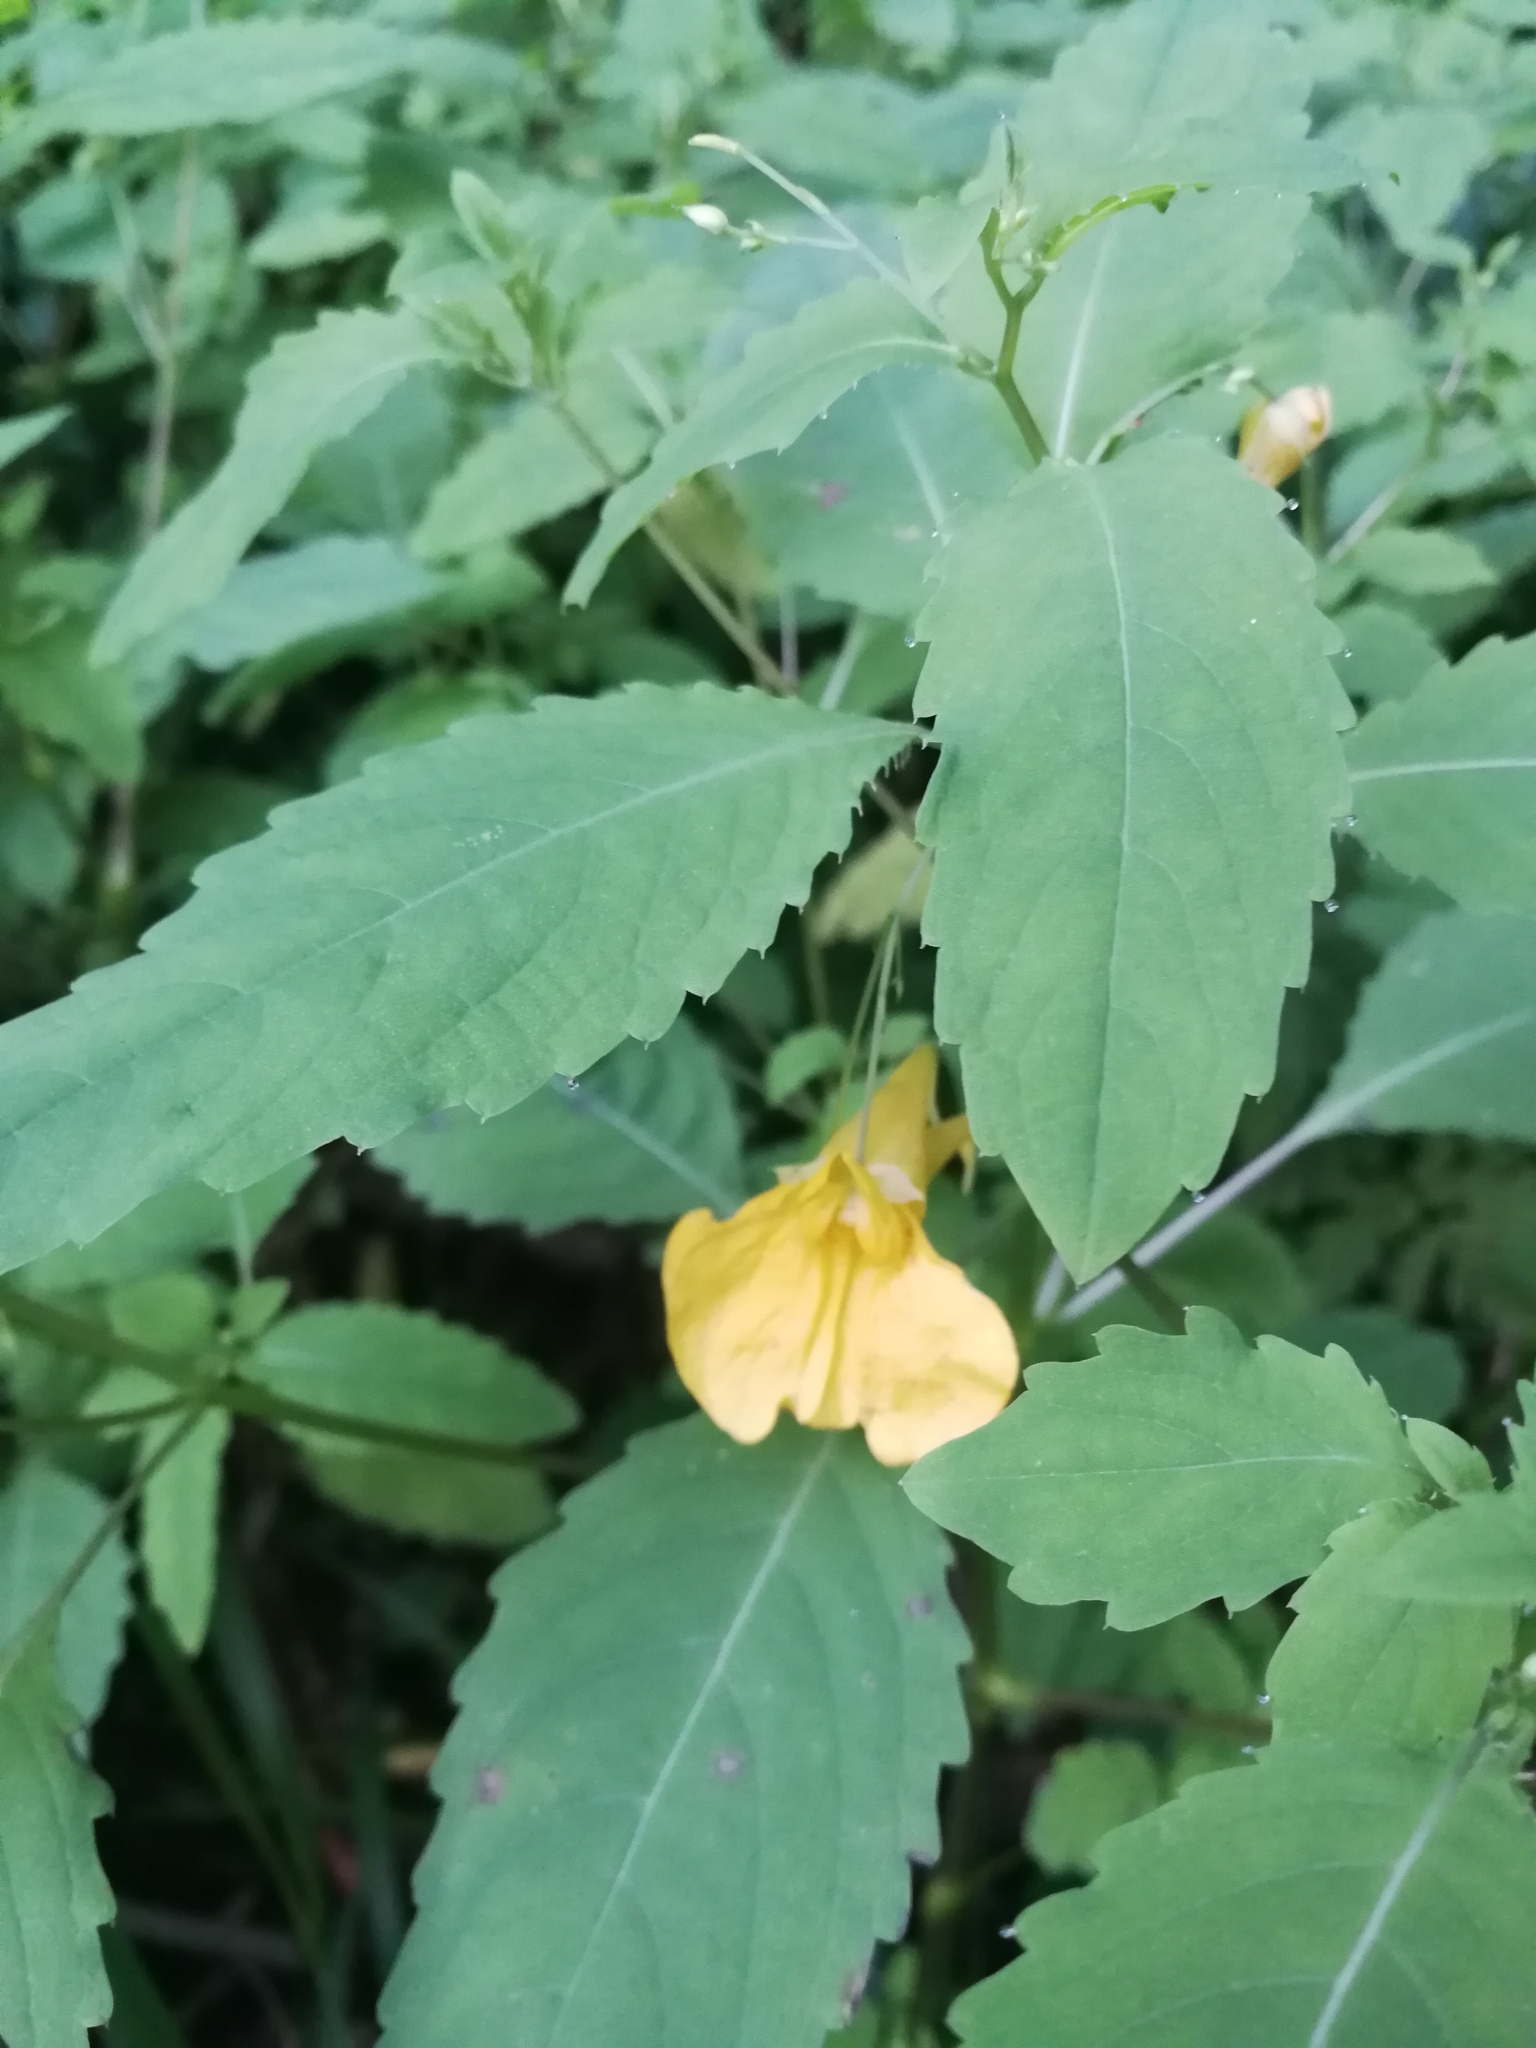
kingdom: Plantae
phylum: Tracheophyta
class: Magnoliopsida
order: Ericales
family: Balsaminaceae
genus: Impatiens
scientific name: Impatiens noli-tangere
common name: Touch-me-not balsam
